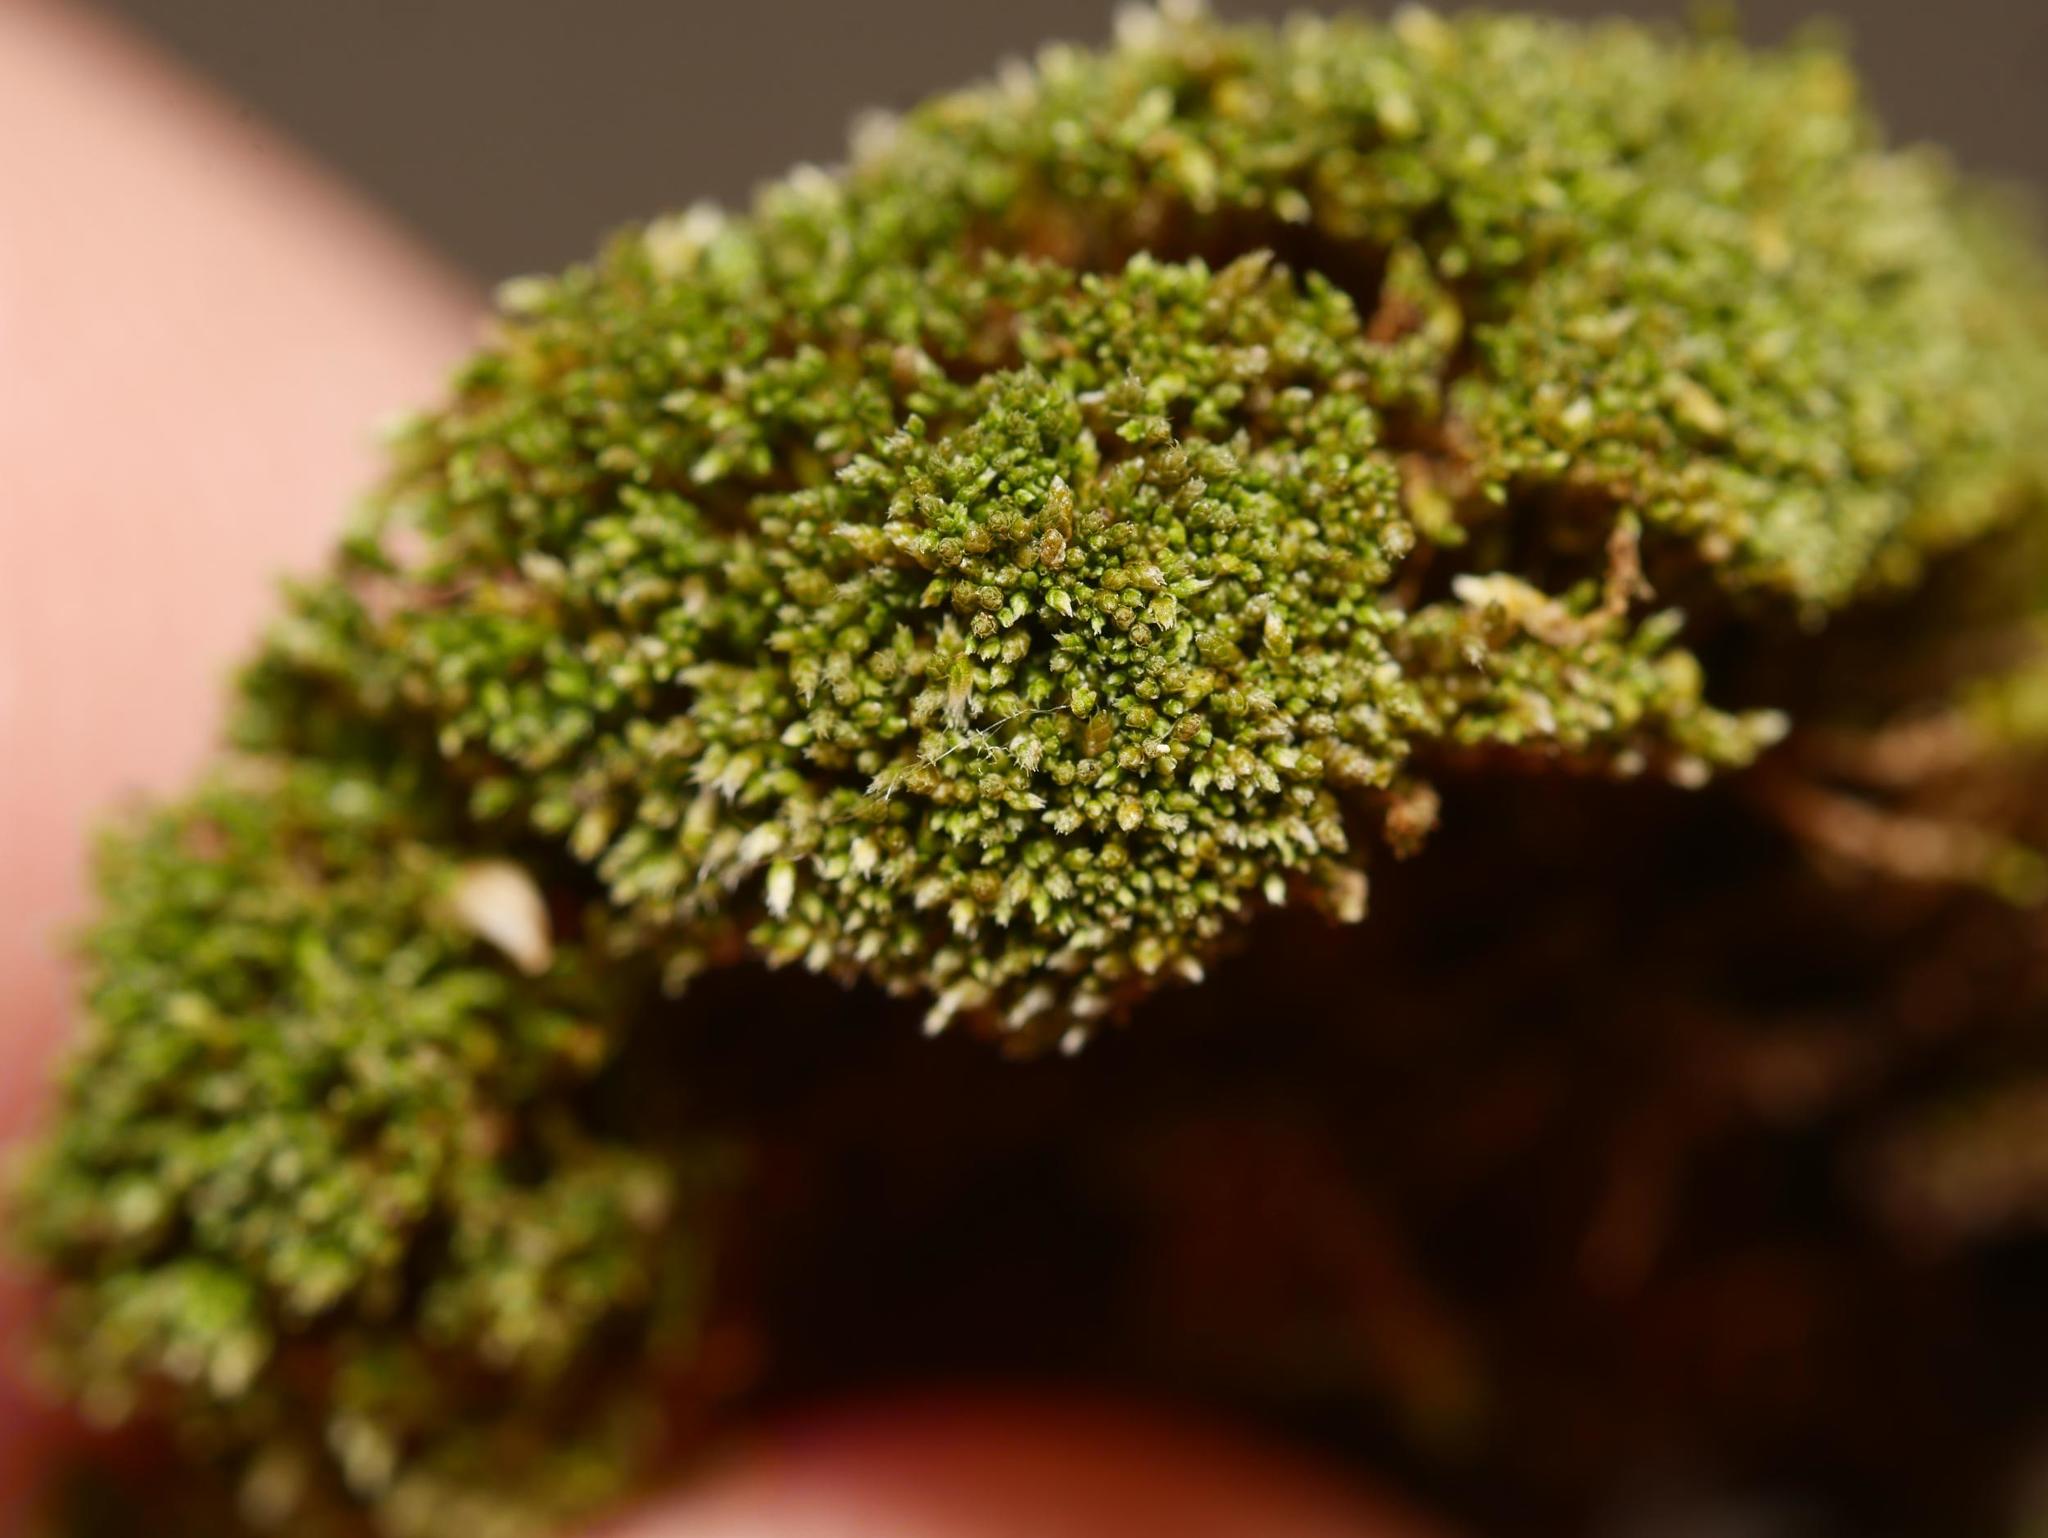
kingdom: Plantae
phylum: Bryophyta
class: Bryopsida
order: Bryales
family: Bryaceae
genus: Bryum
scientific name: Bryum argenteum
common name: Silver-moss
